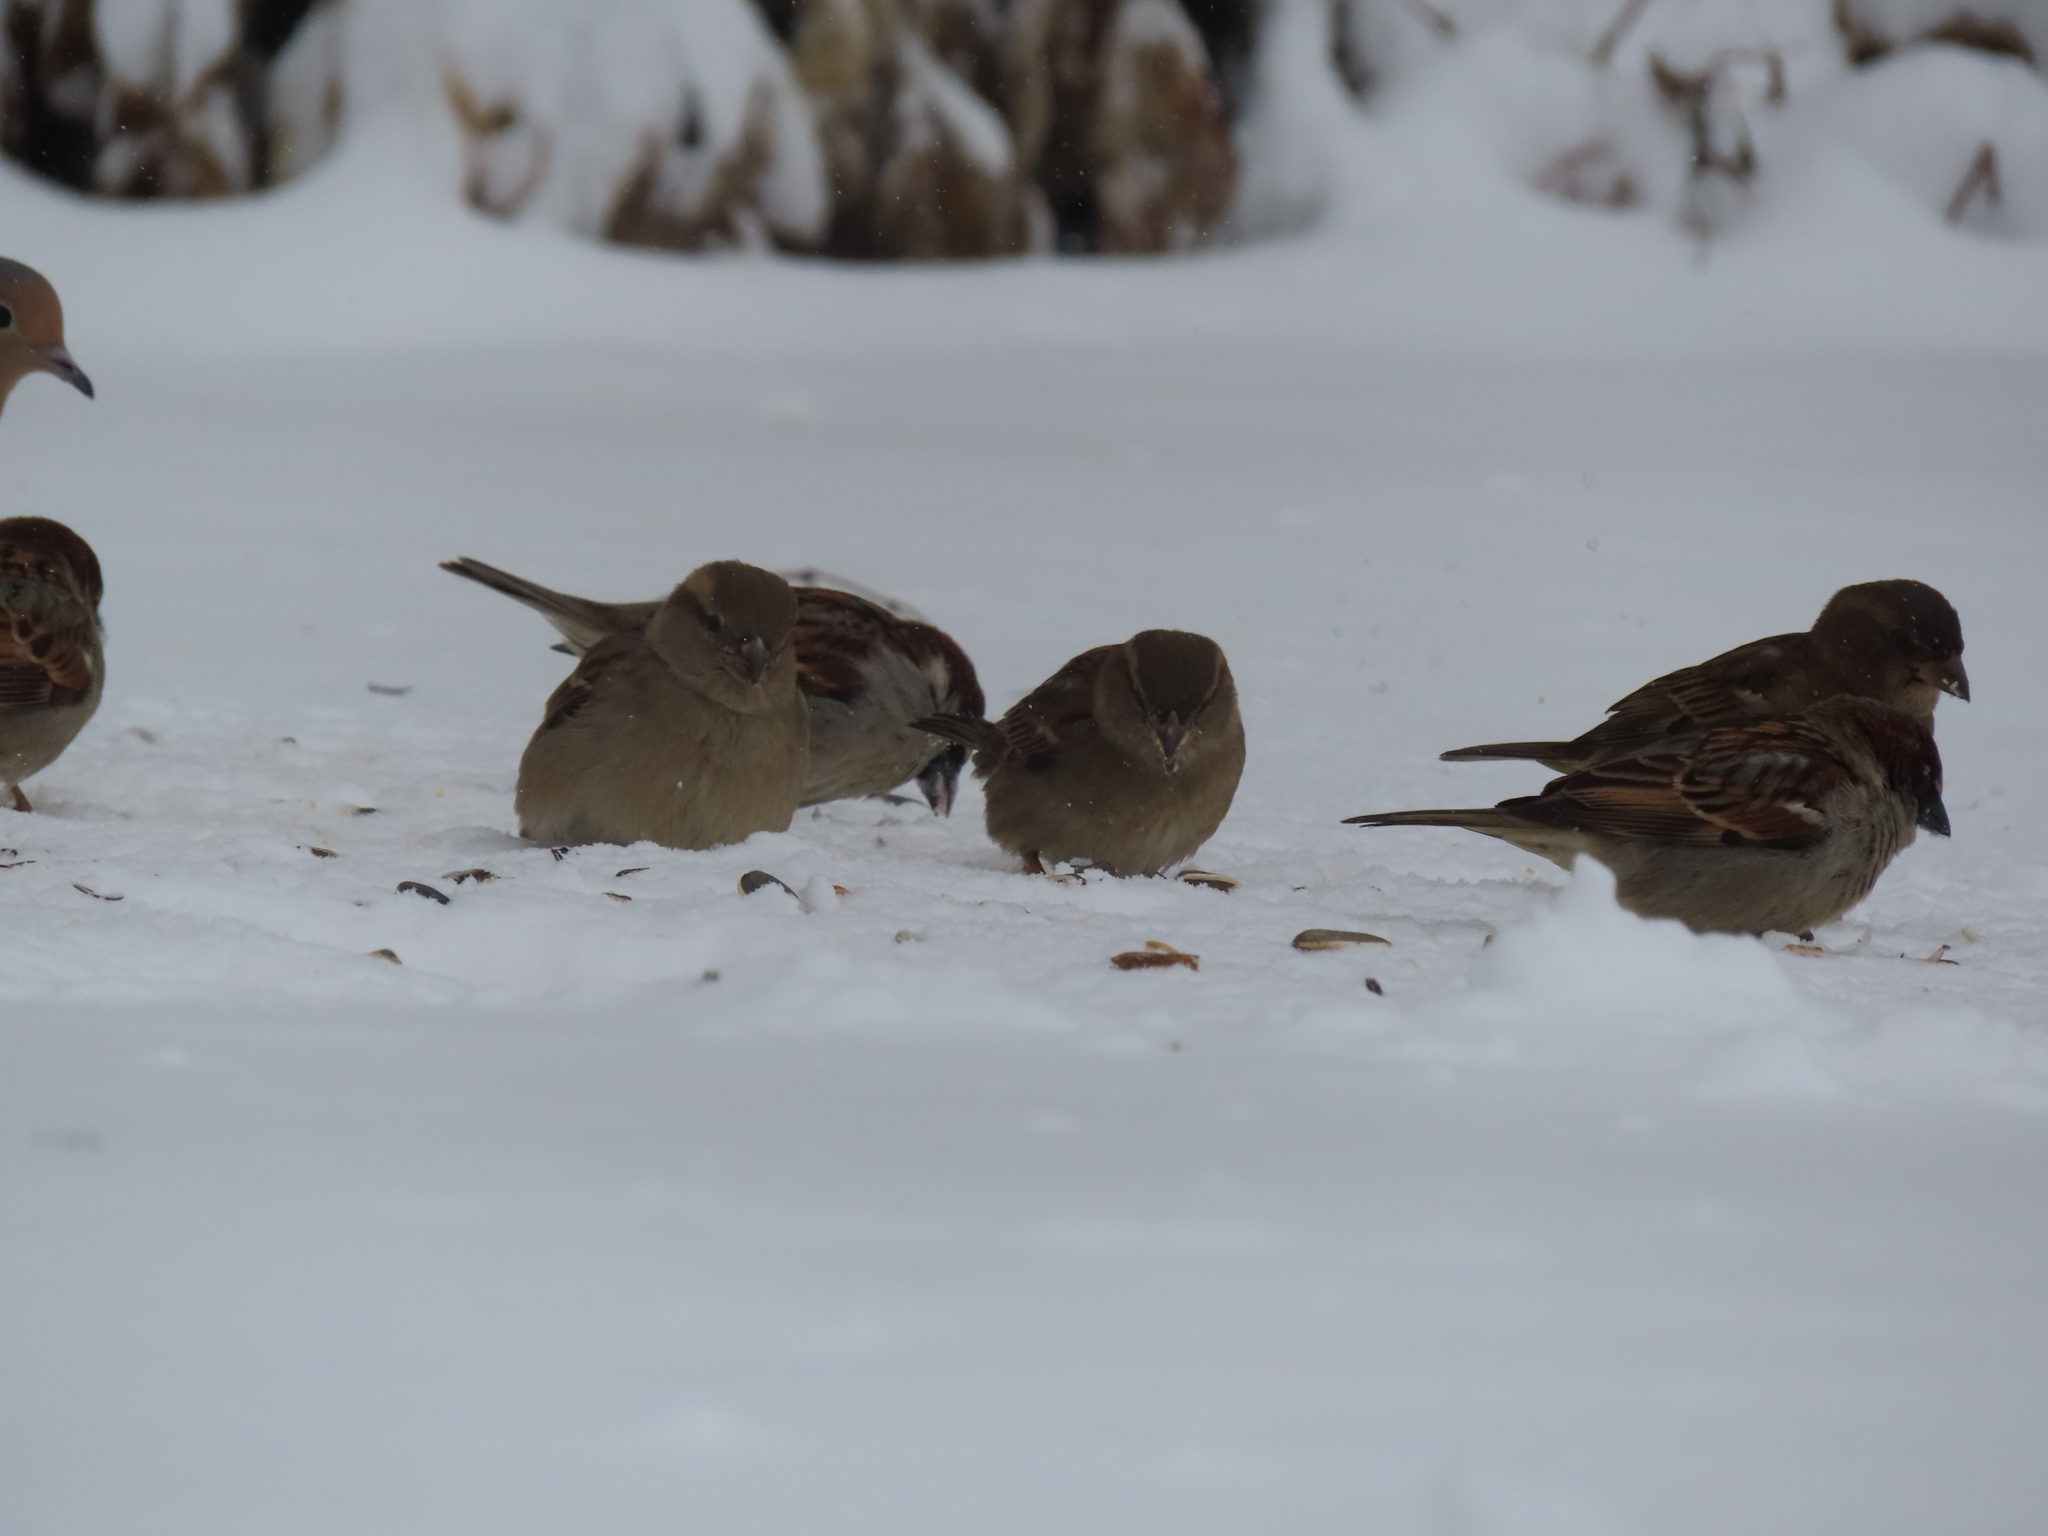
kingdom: Animalia
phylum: Chordata
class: Aves
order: Passeriformes
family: Passerellidae
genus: Junco
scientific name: Junco hyemalis
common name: Dark-eyed junco
